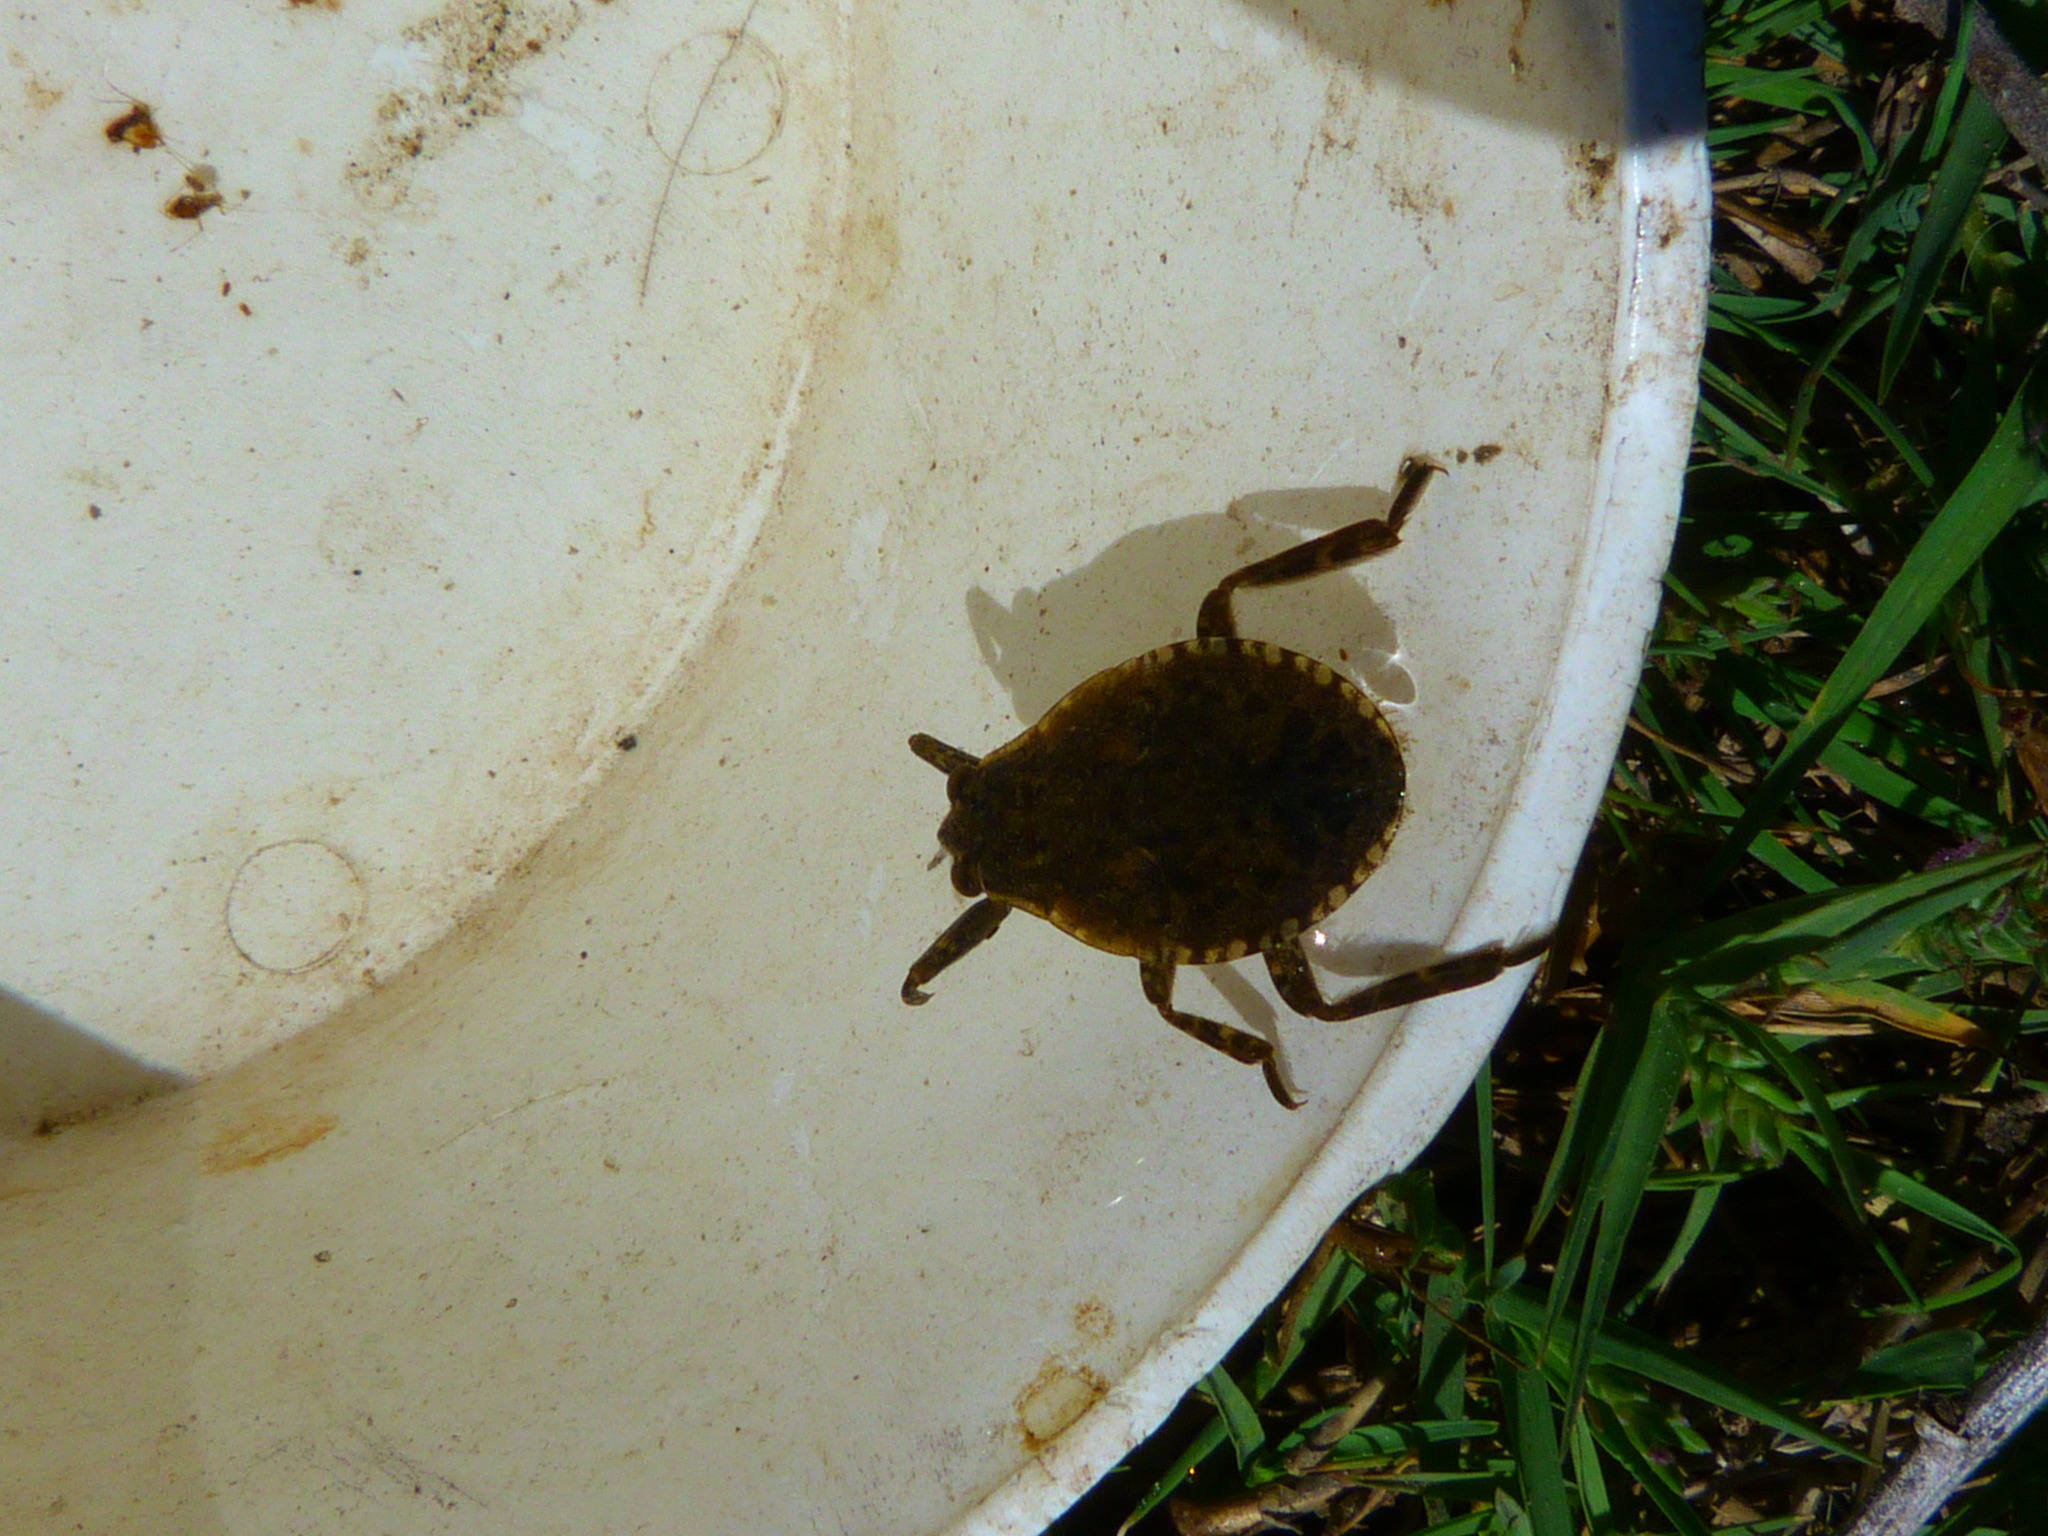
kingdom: Animalia
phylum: Arthropoda
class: Insecta
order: Hemiptera
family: Belostomatidae
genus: Abedus
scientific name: Abedus indentatus
